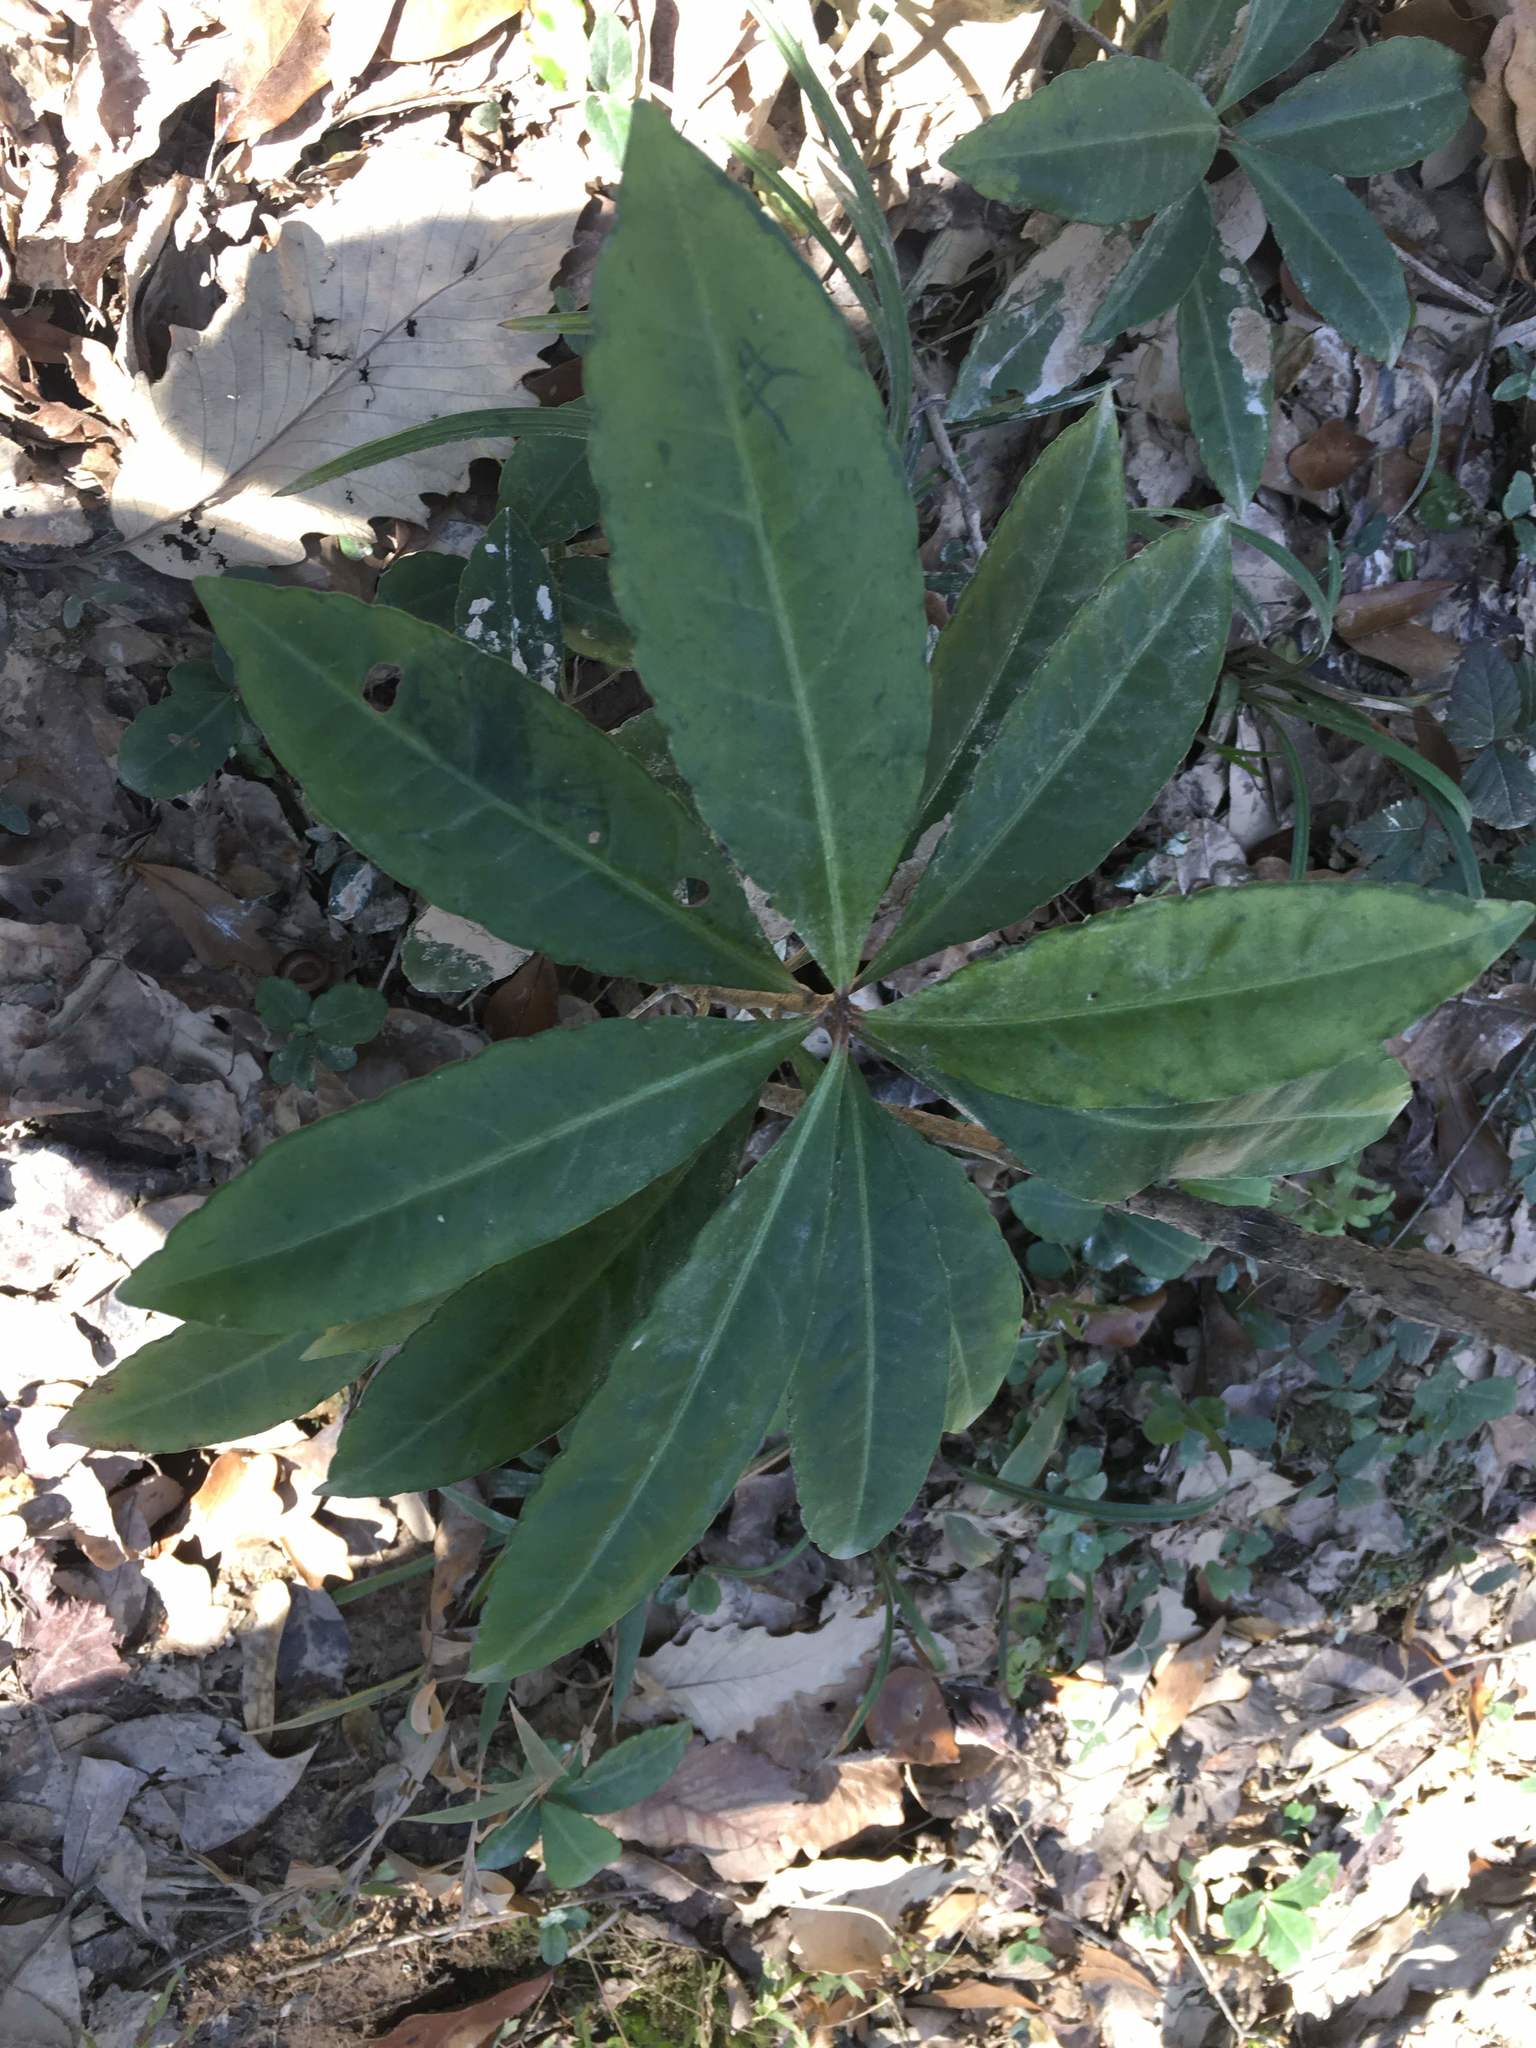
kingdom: Plantae
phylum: Tracheophyta
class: Magnoliopsida
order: Ericales
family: Primulaceae
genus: Ardisia
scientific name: Ardisia crenata
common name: Hen's eyes
